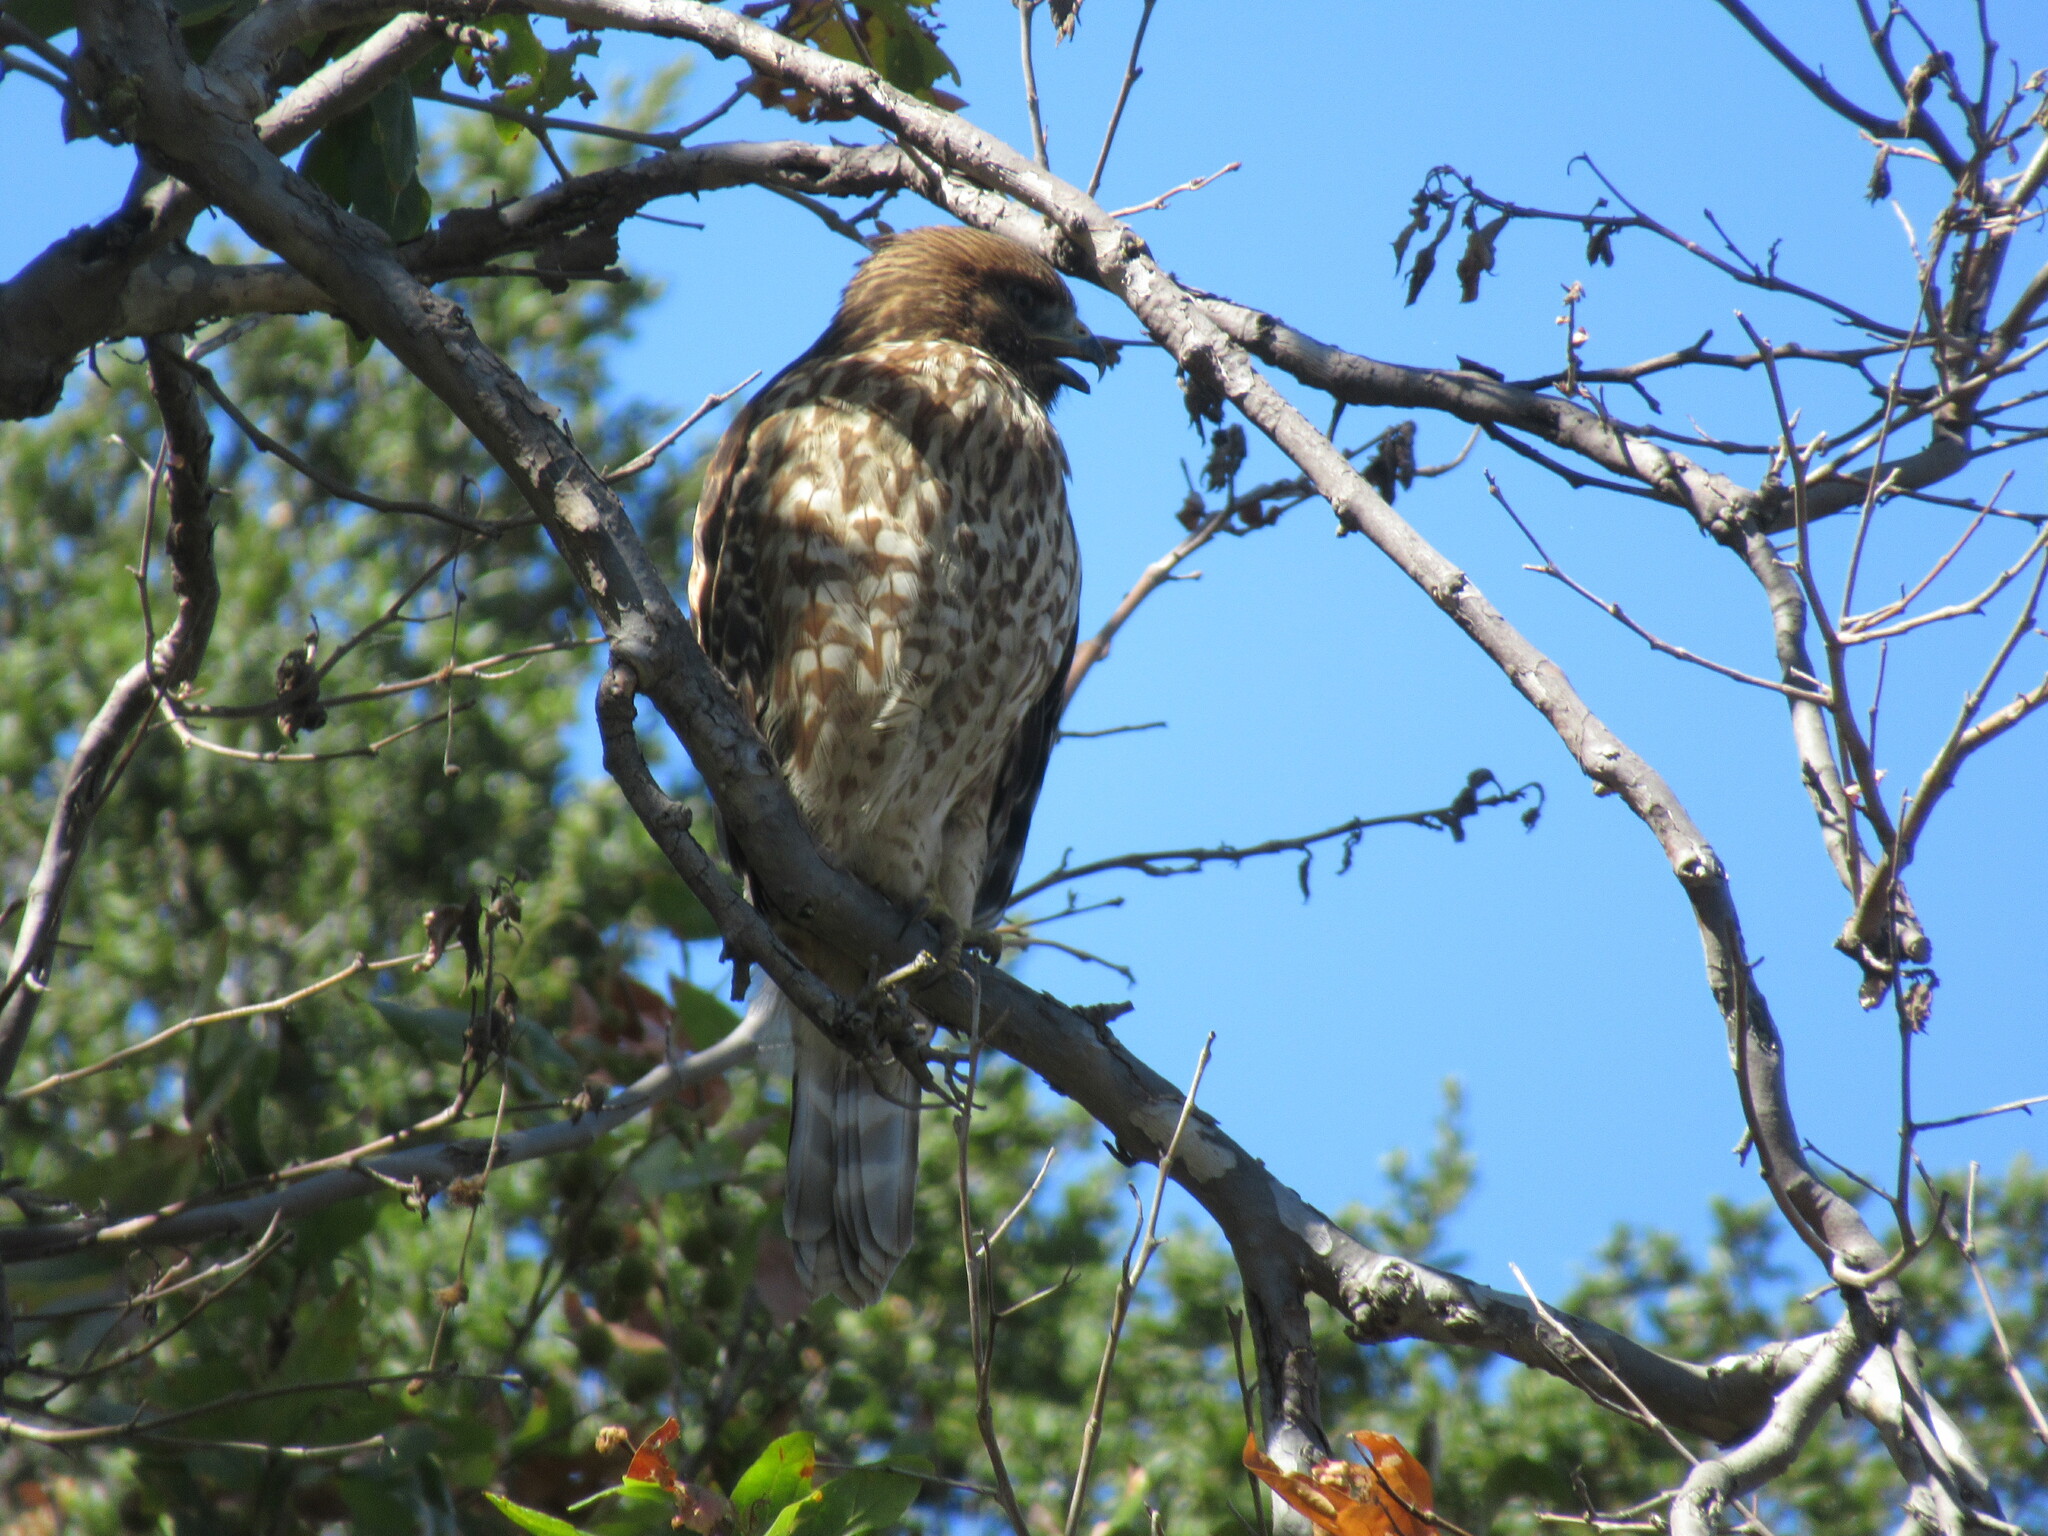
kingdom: Animalia
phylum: Chordata
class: Aves
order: Accipitriformes
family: Accipitridae
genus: Buteo
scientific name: Buteo lineatus
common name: Red-shouldered hawk
